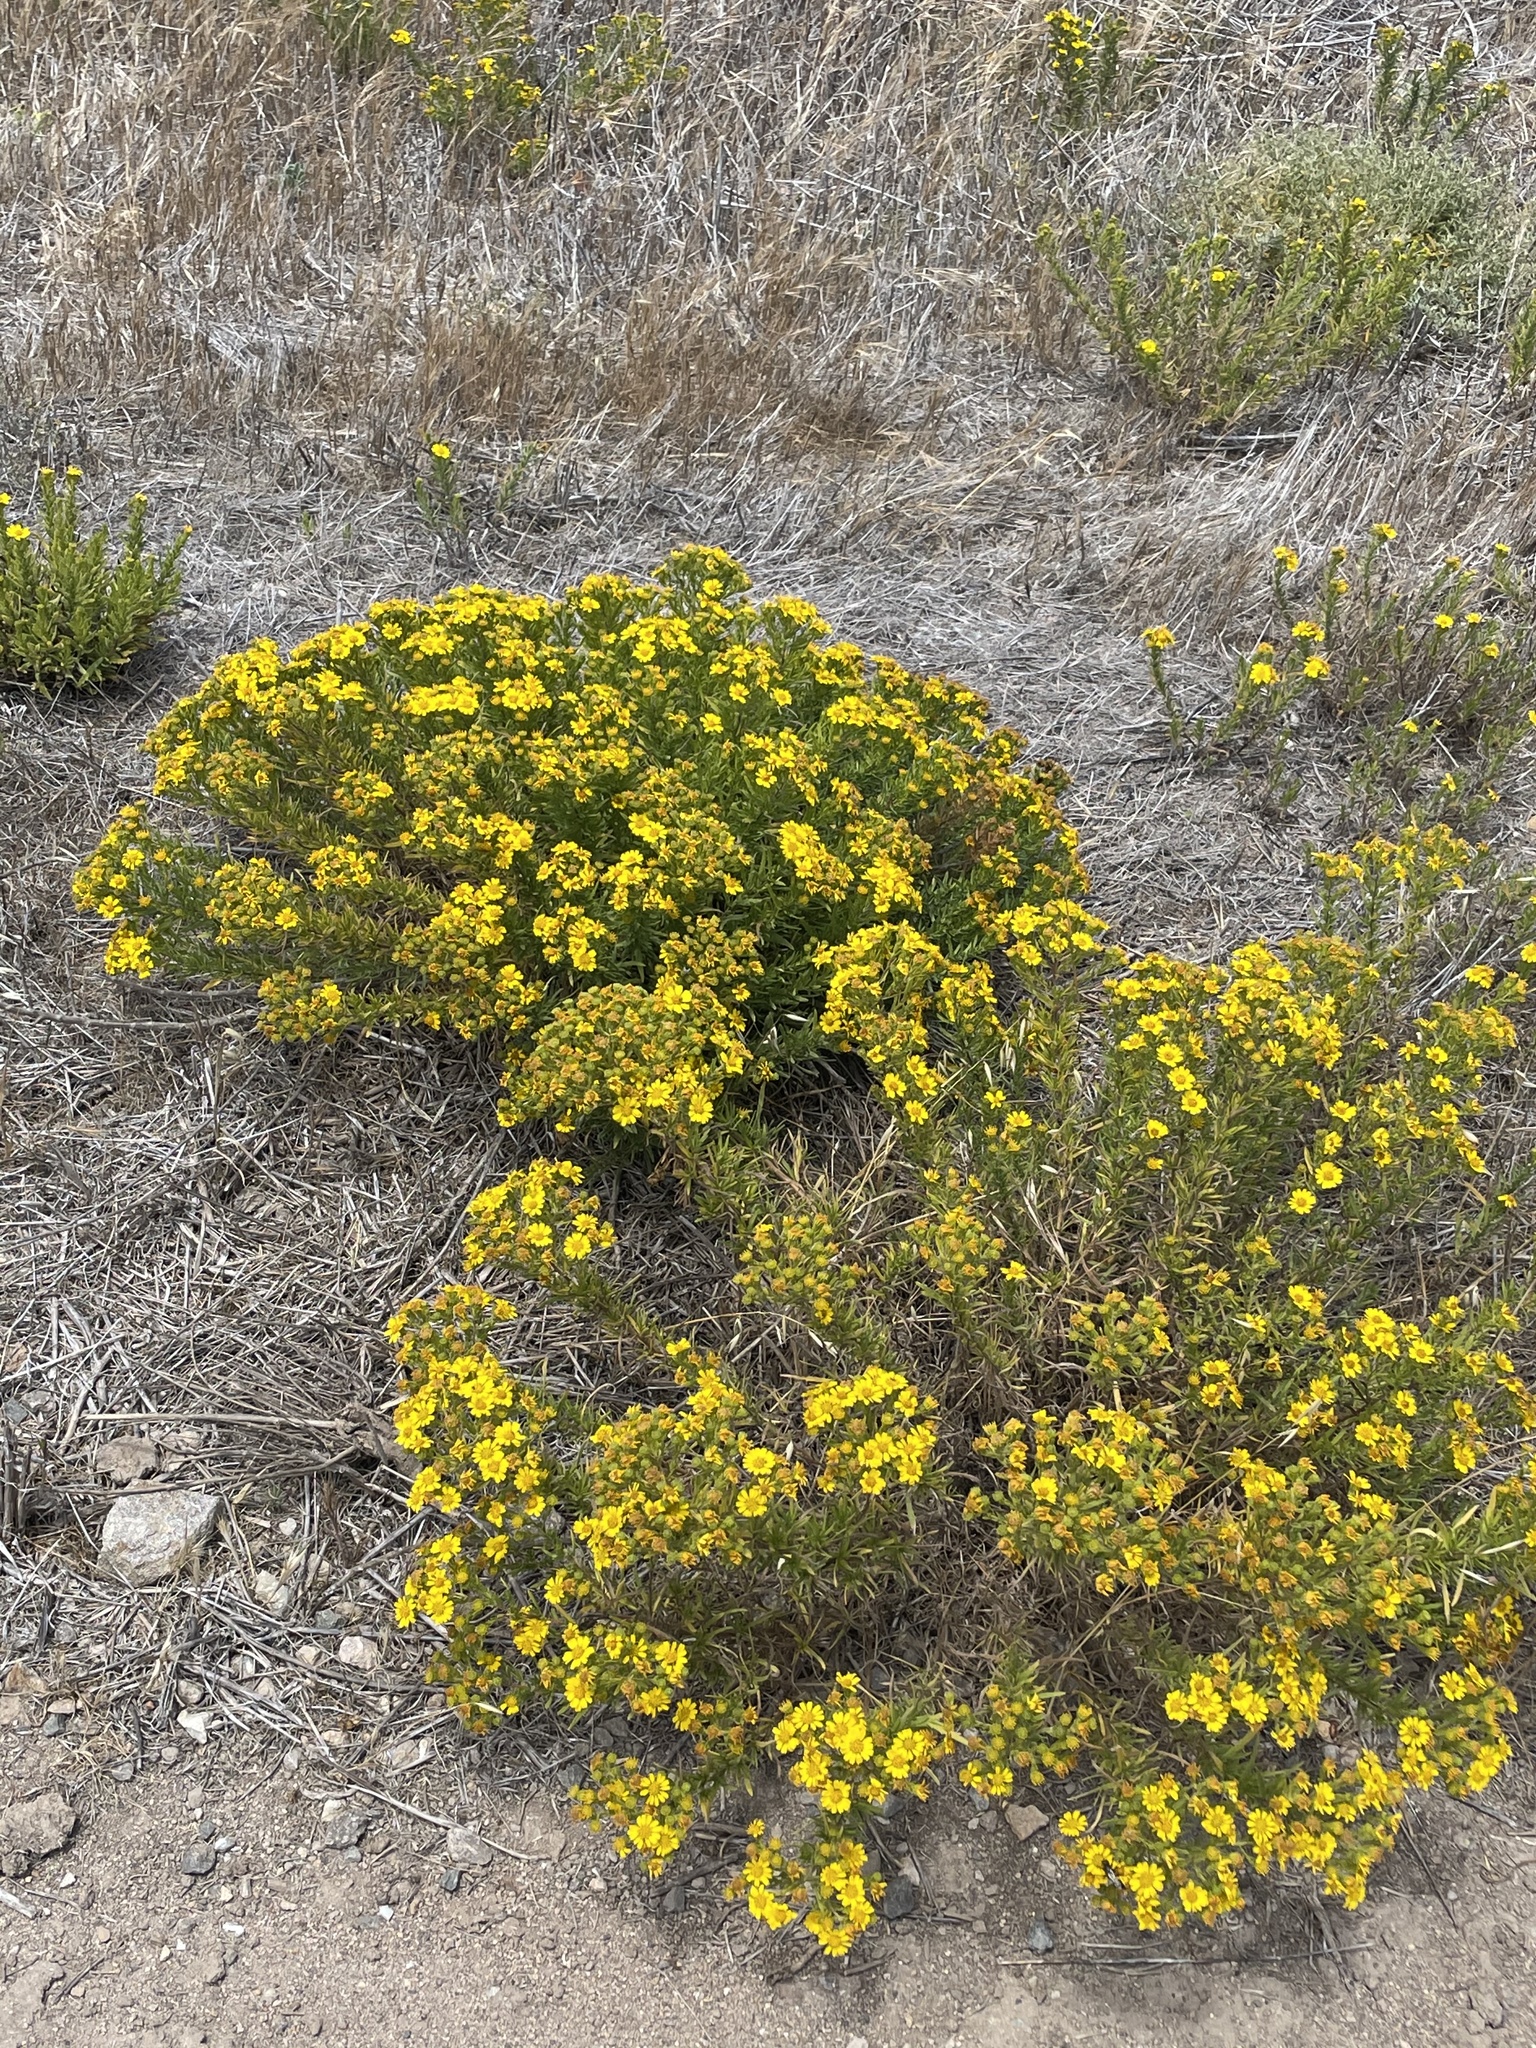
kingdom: Plantae
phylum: Tracheophyta
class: Magnoliopsida
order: Asterales
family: Asteraceae
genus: Deinandra
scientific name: Deinandra clementina
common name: Island tarplant
